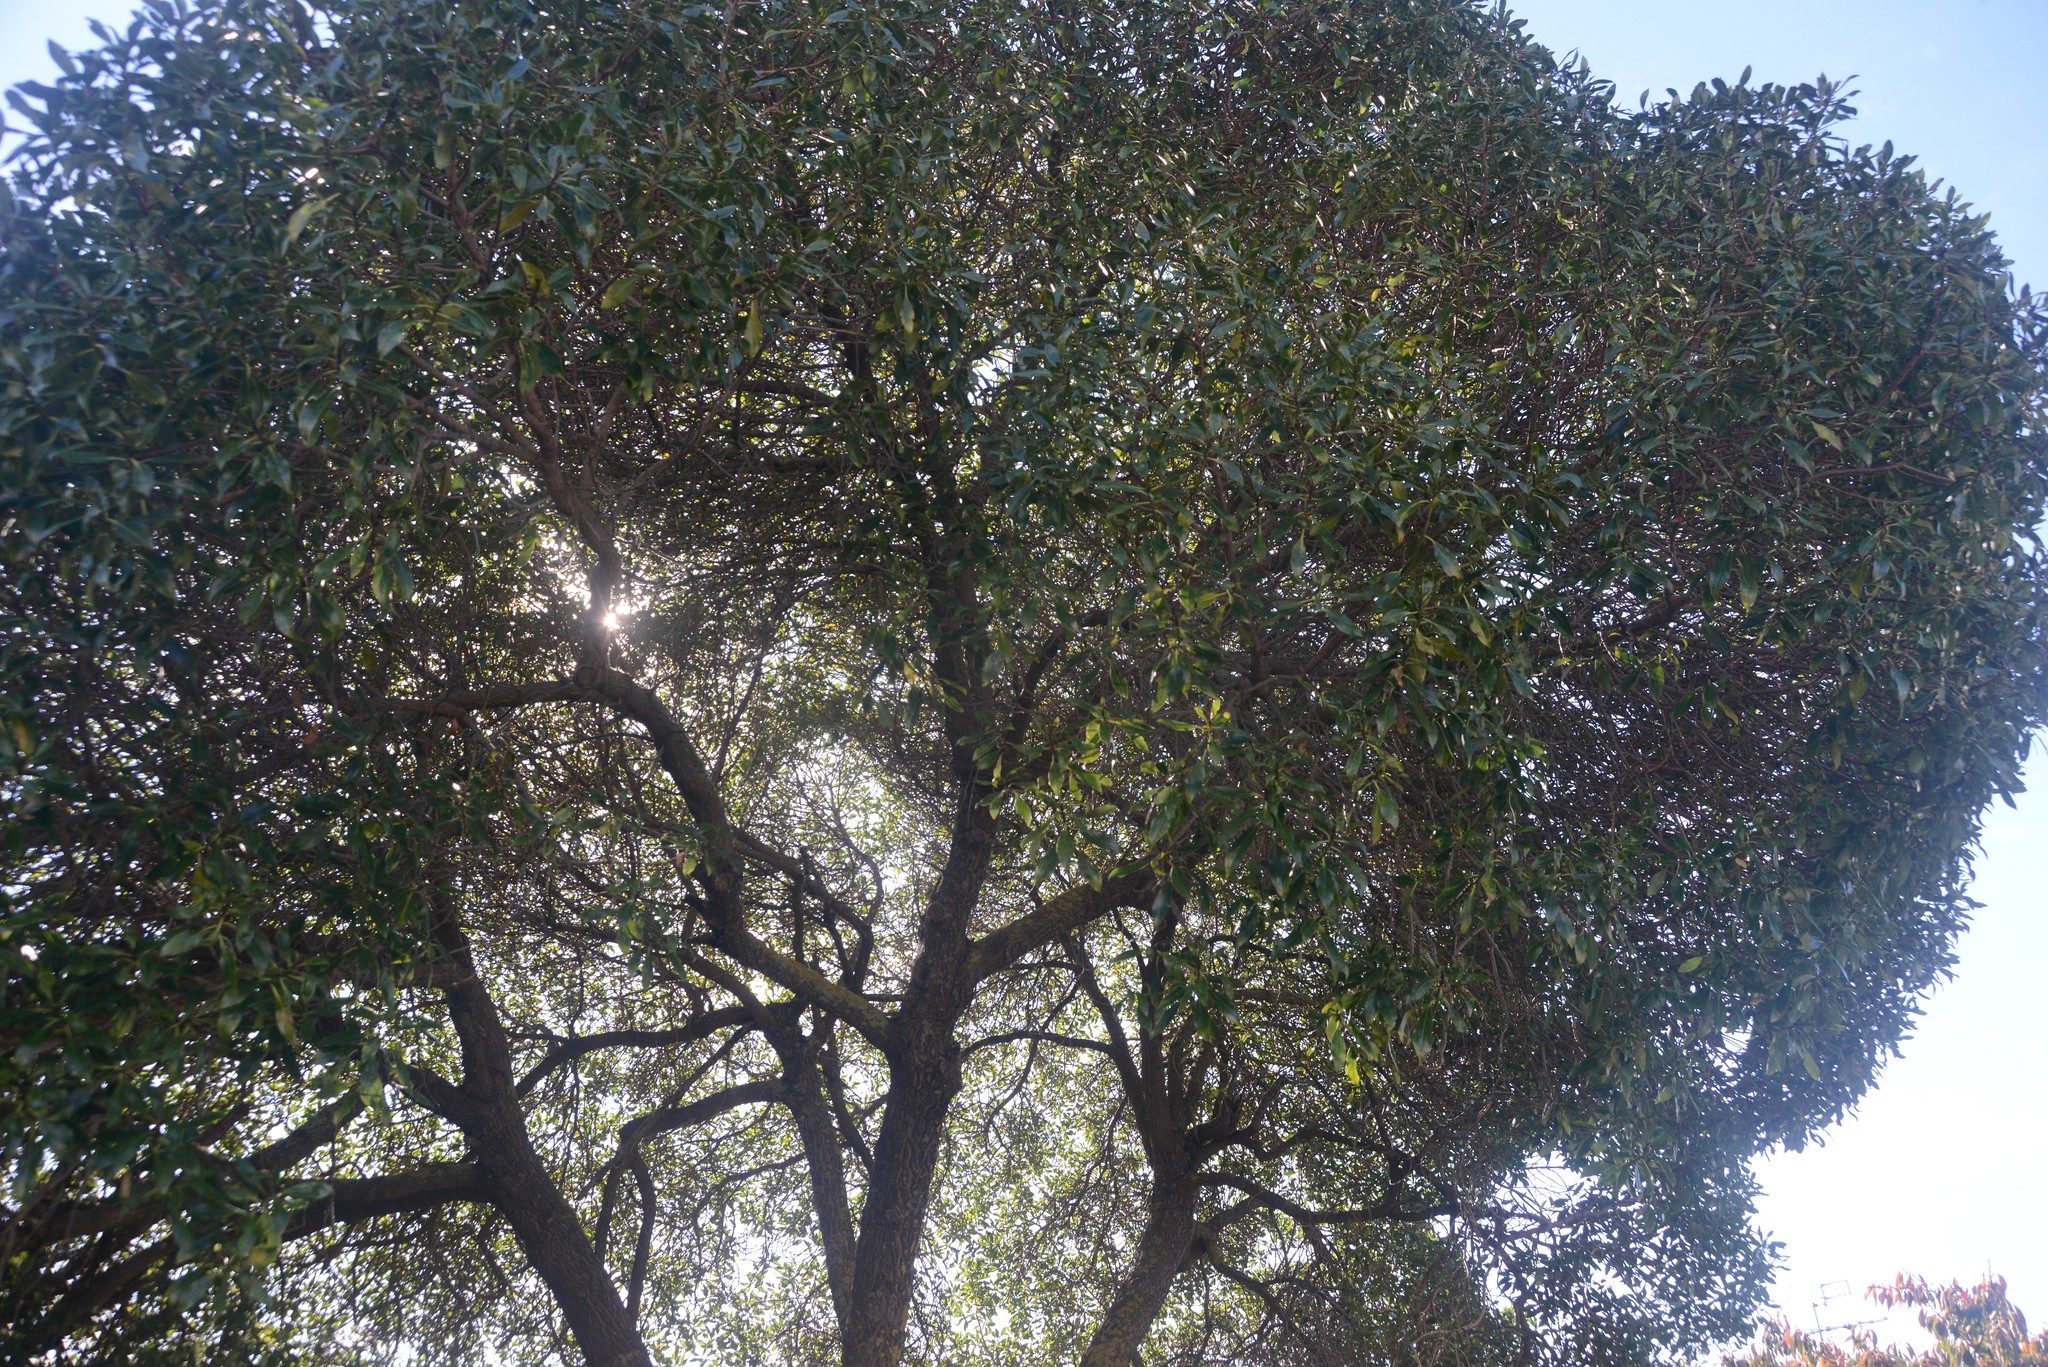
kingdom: Plantae
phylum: Tracheophyta
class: Magnoliopsida
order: Lamiales
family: Scrophulariaceae
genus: Myoporum
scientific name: Myoporum laetum
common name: Ngaio tree
